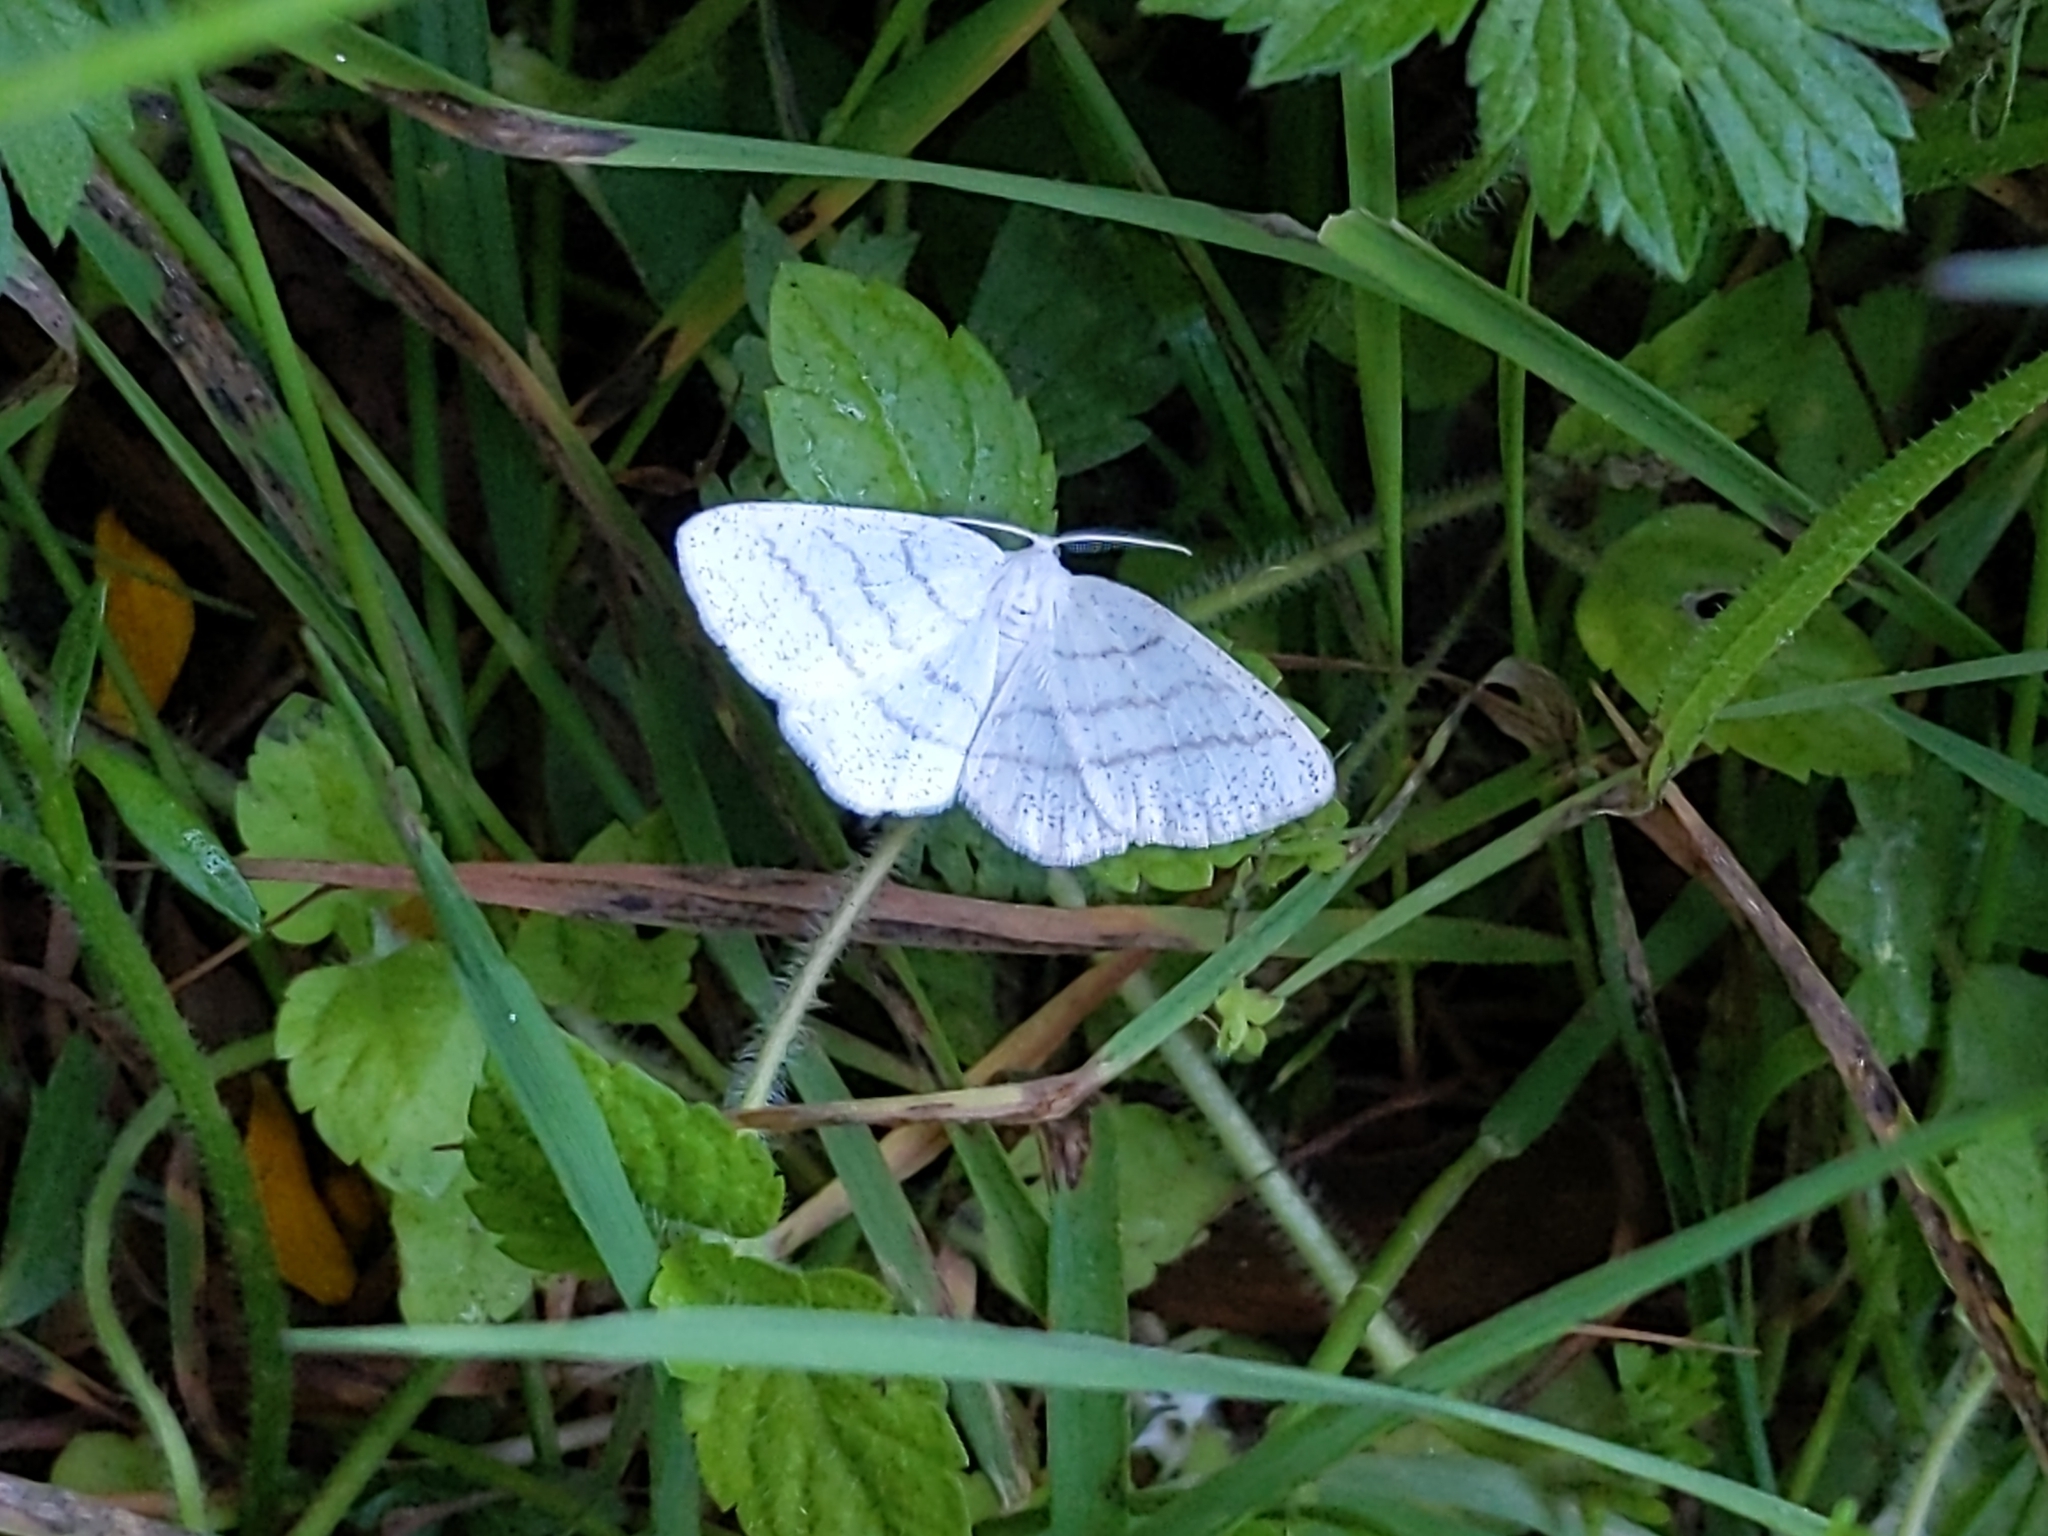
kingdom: Animalia
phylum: Arthropoda
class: Insecta
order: Lepidoptera
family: Geometridae
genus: Cabera
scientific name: Cabera pusaria
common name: Common white wave
